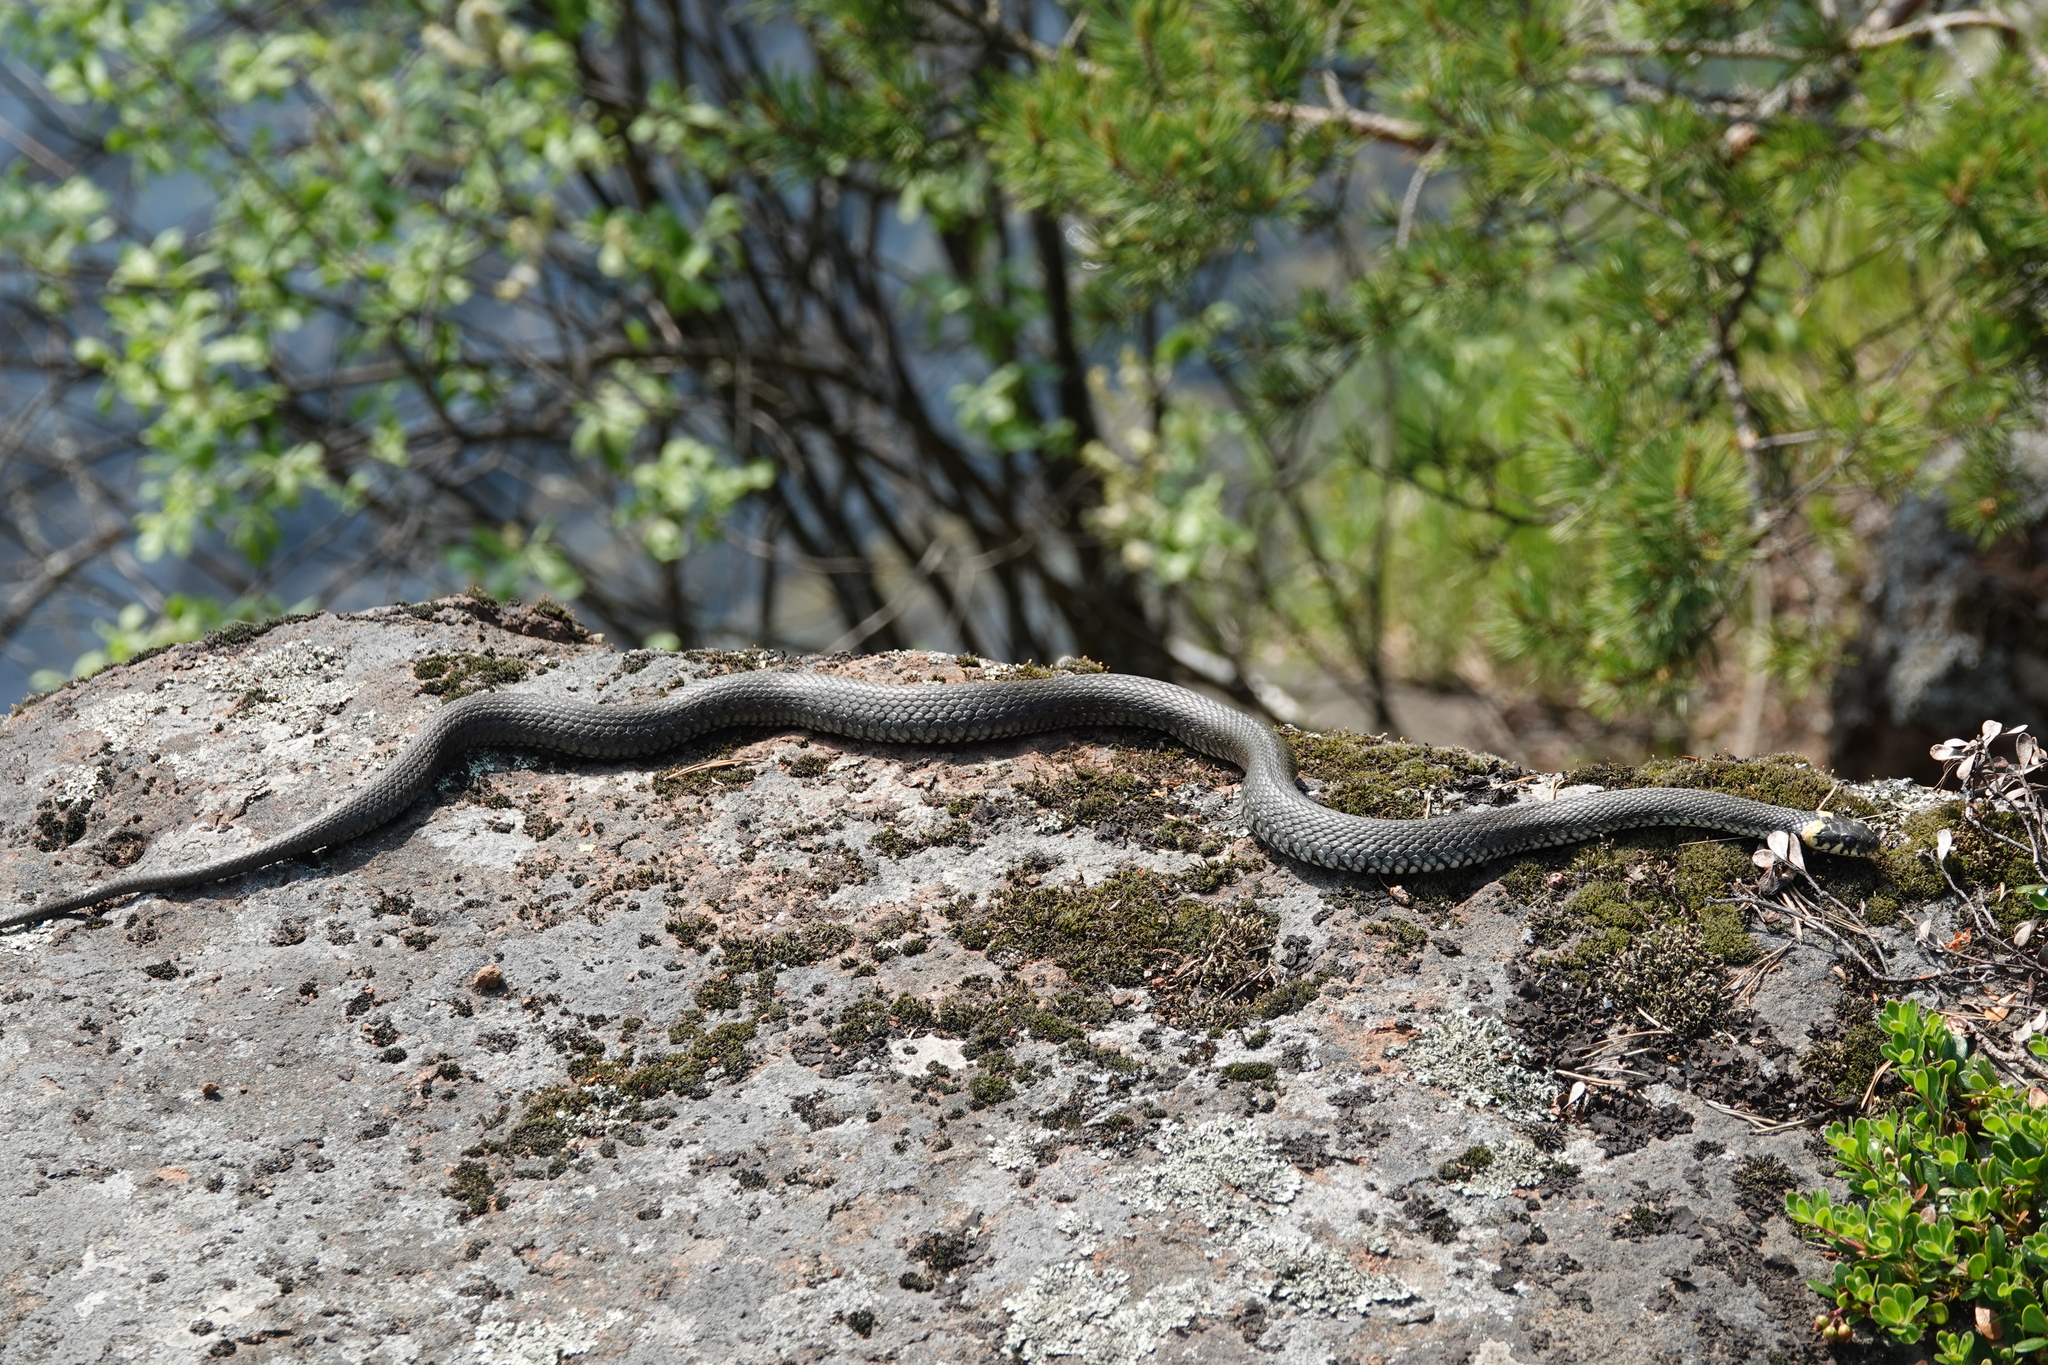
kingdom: Animalia
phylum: Chordata
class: Squamata
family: Colubridae
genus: Natrix
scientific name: Natrix natrix
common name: Grass snake
